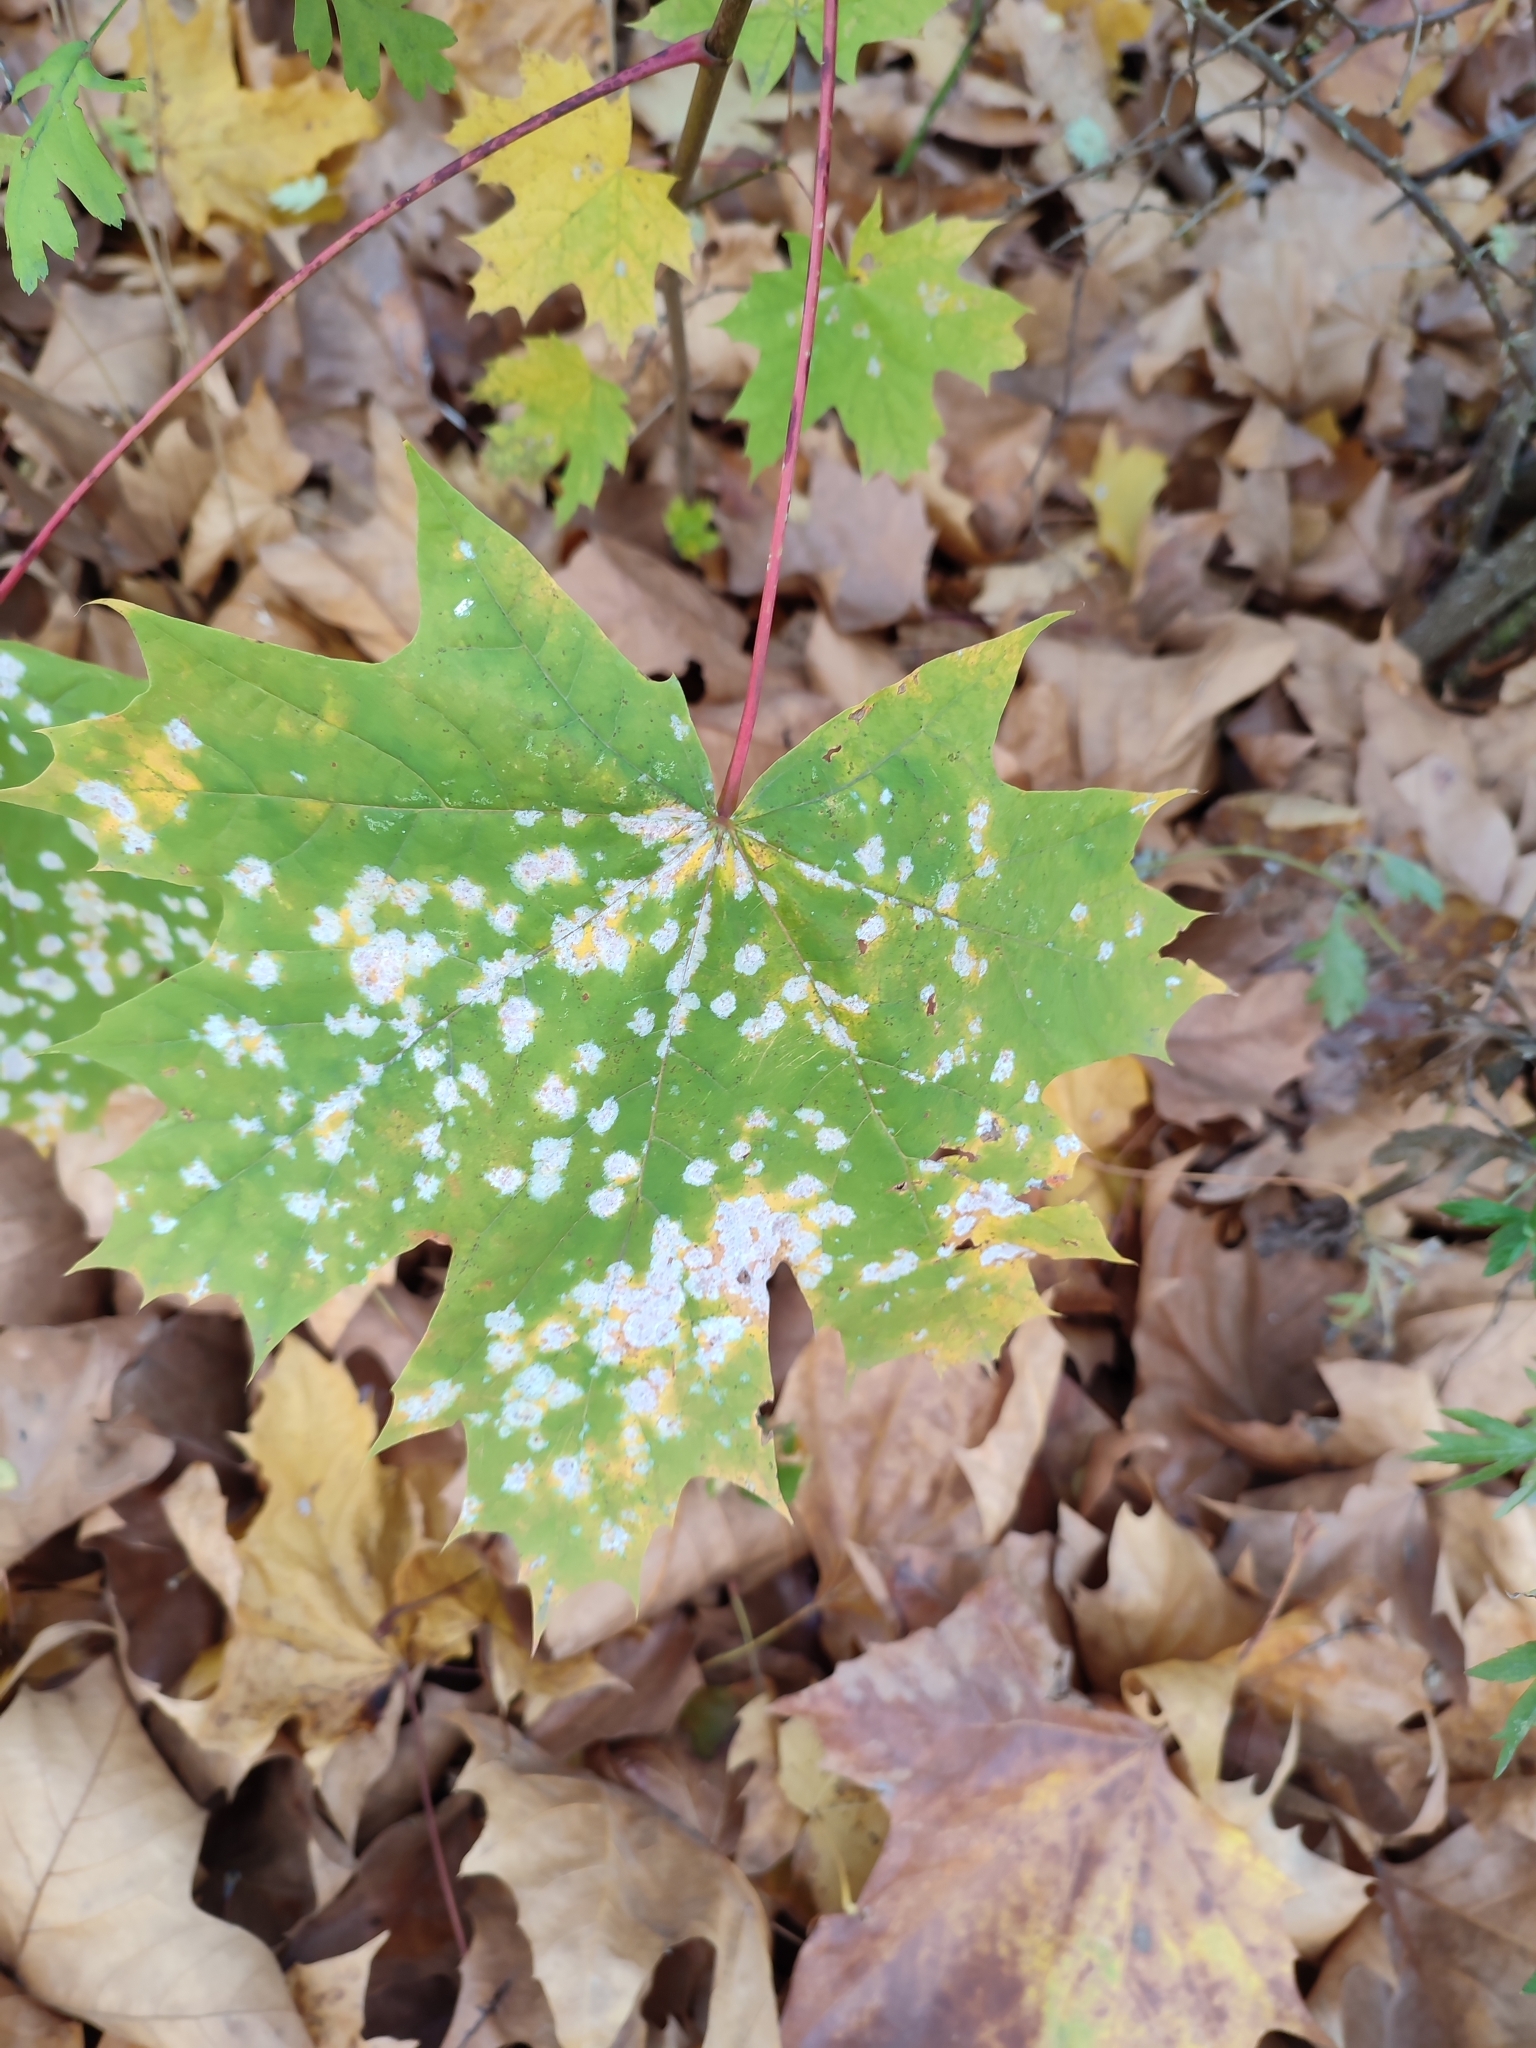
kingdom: Fungi
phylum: Ascomycota
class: Leotiomycetes
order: Helotiales
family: Erysiphaceae
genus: Sawadaea
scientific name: Sawadaea tulasnei
